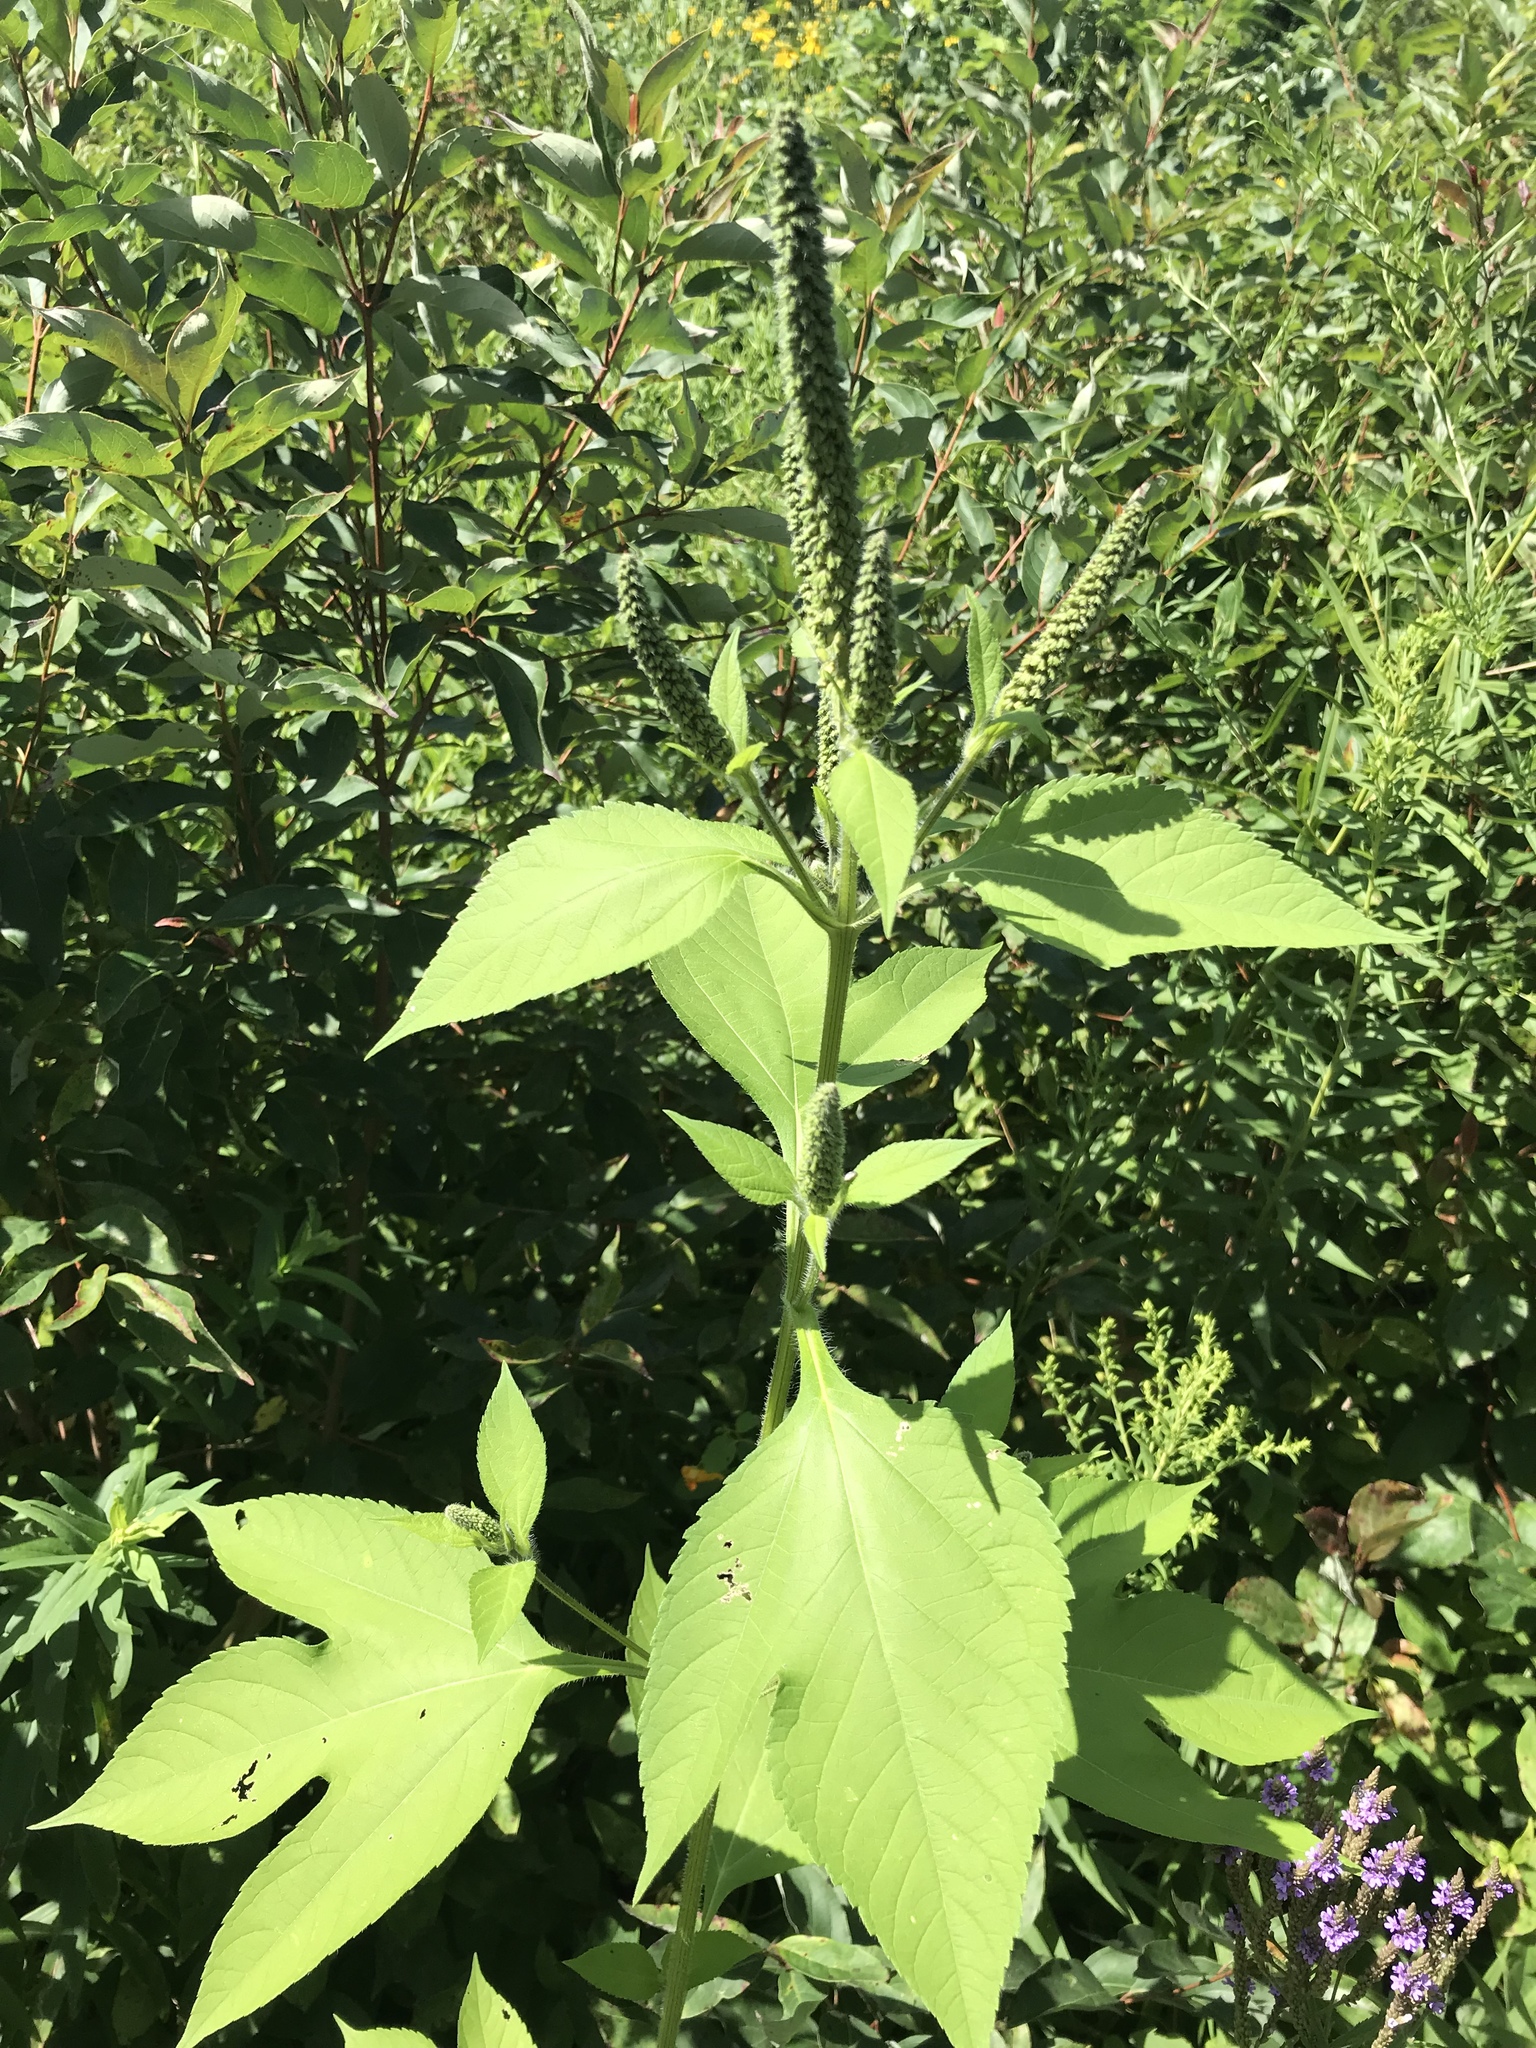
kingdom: Plantae
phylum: Tracheophyta
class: Magnoliopsida
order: Asterales
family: Asteraceae
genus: Ambrosia
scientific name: Ambrosia trifida
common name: Giant ragweed
